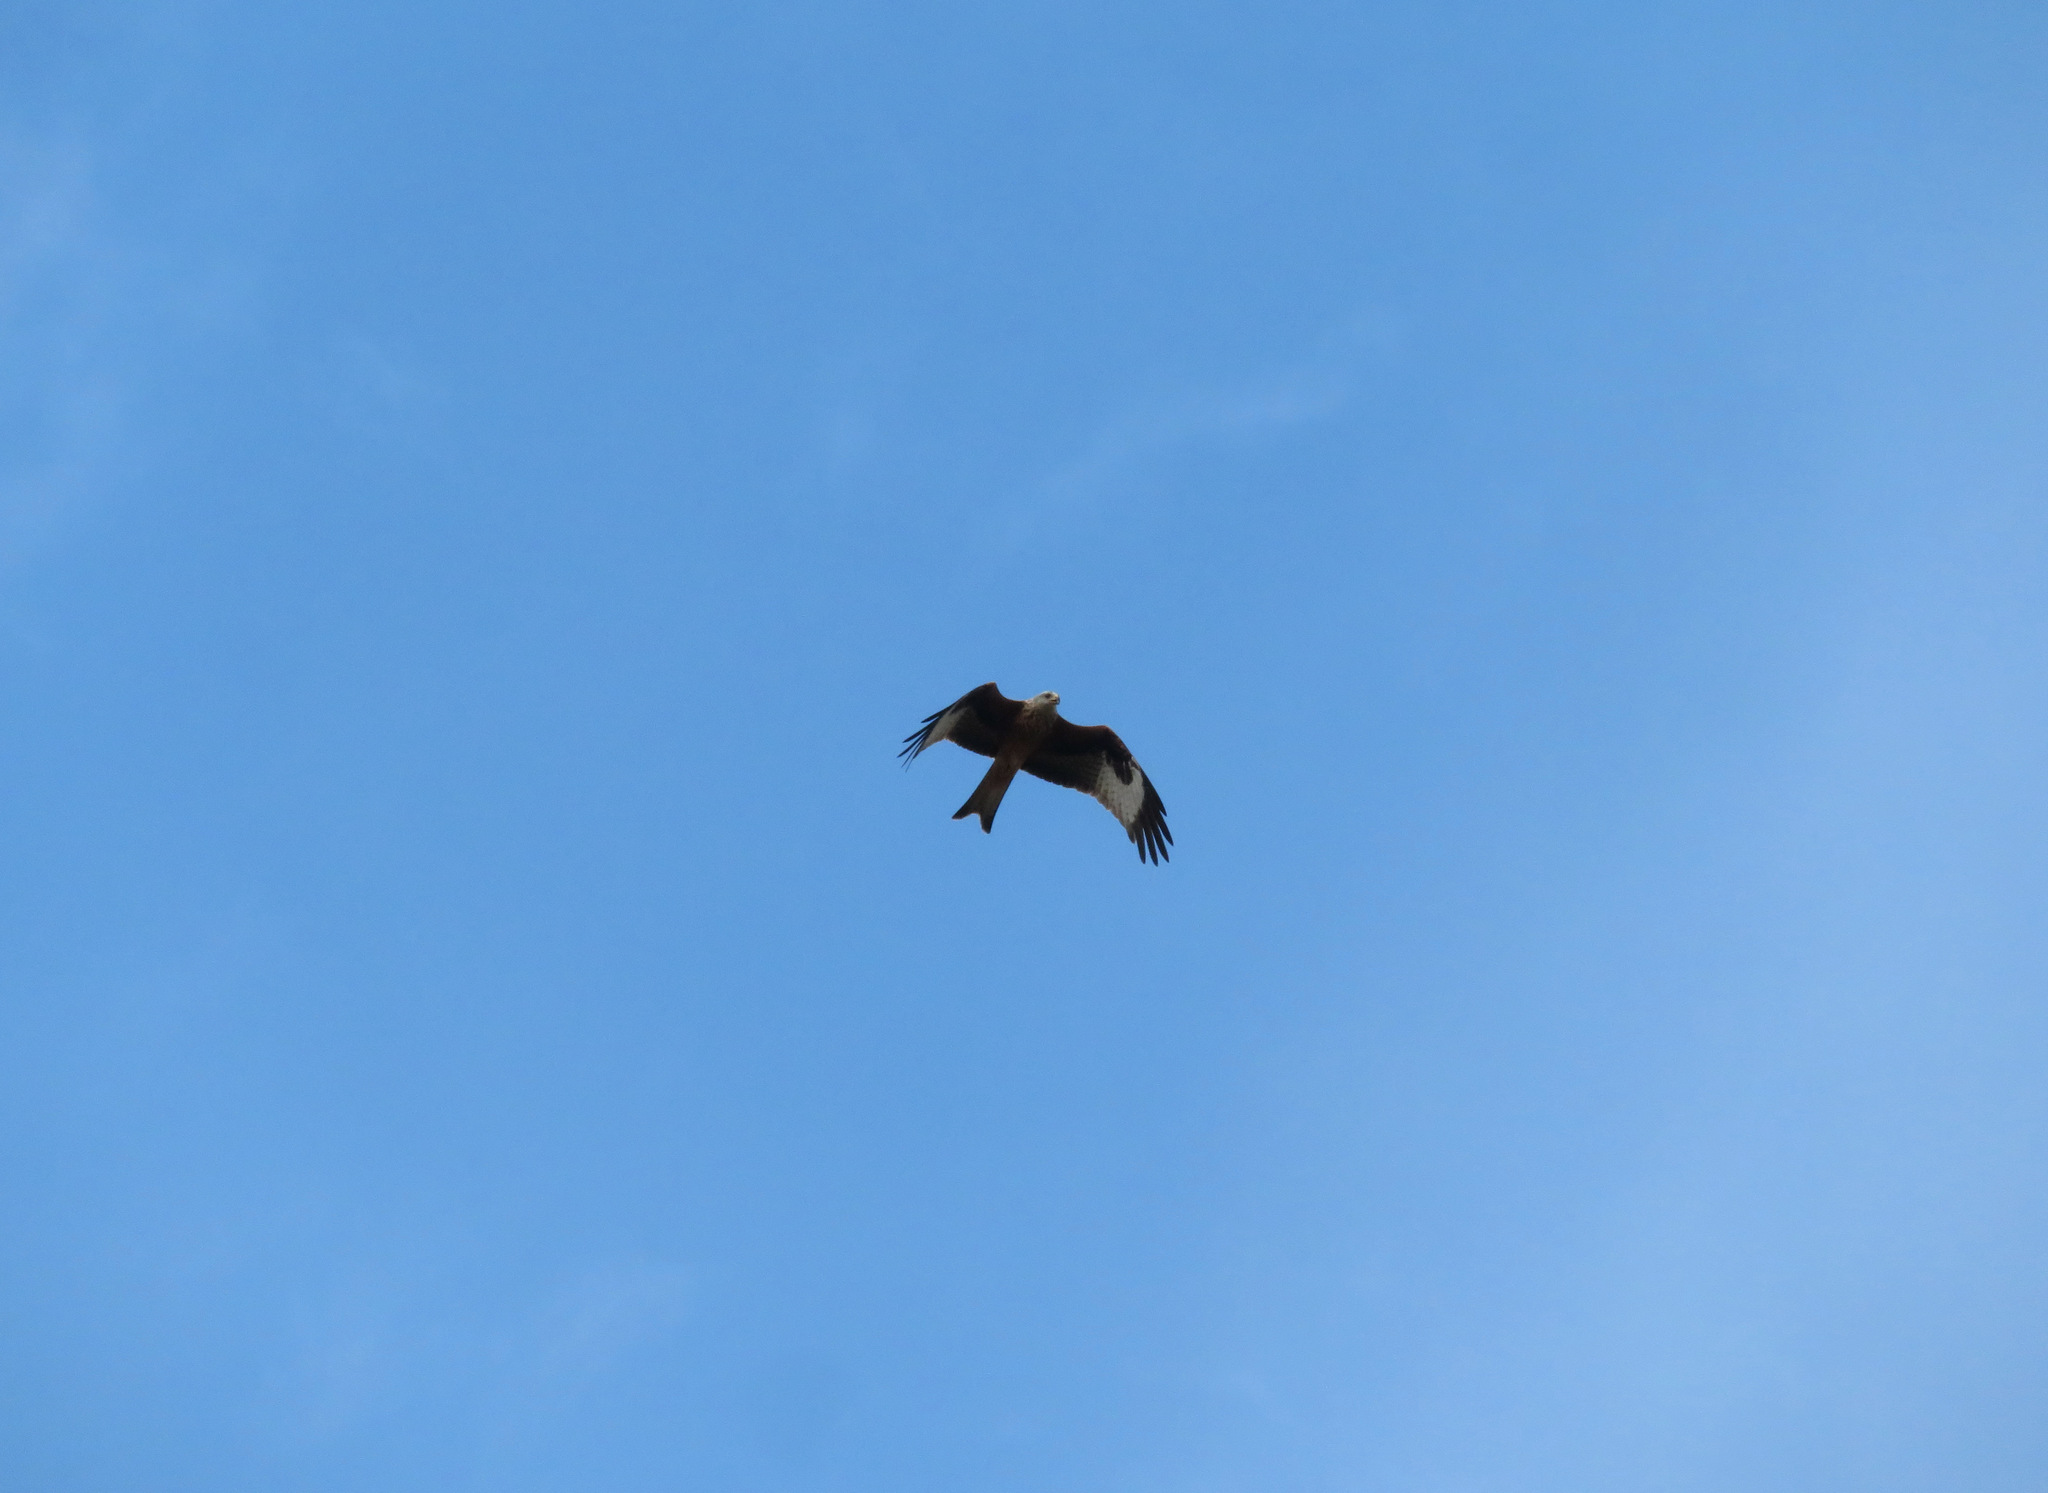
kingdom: Animalia
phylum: Chordata
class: Aves
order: Accipitriformes
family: Accipitridae
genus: Milvus
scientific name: Milvus milvus
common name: Red kite
